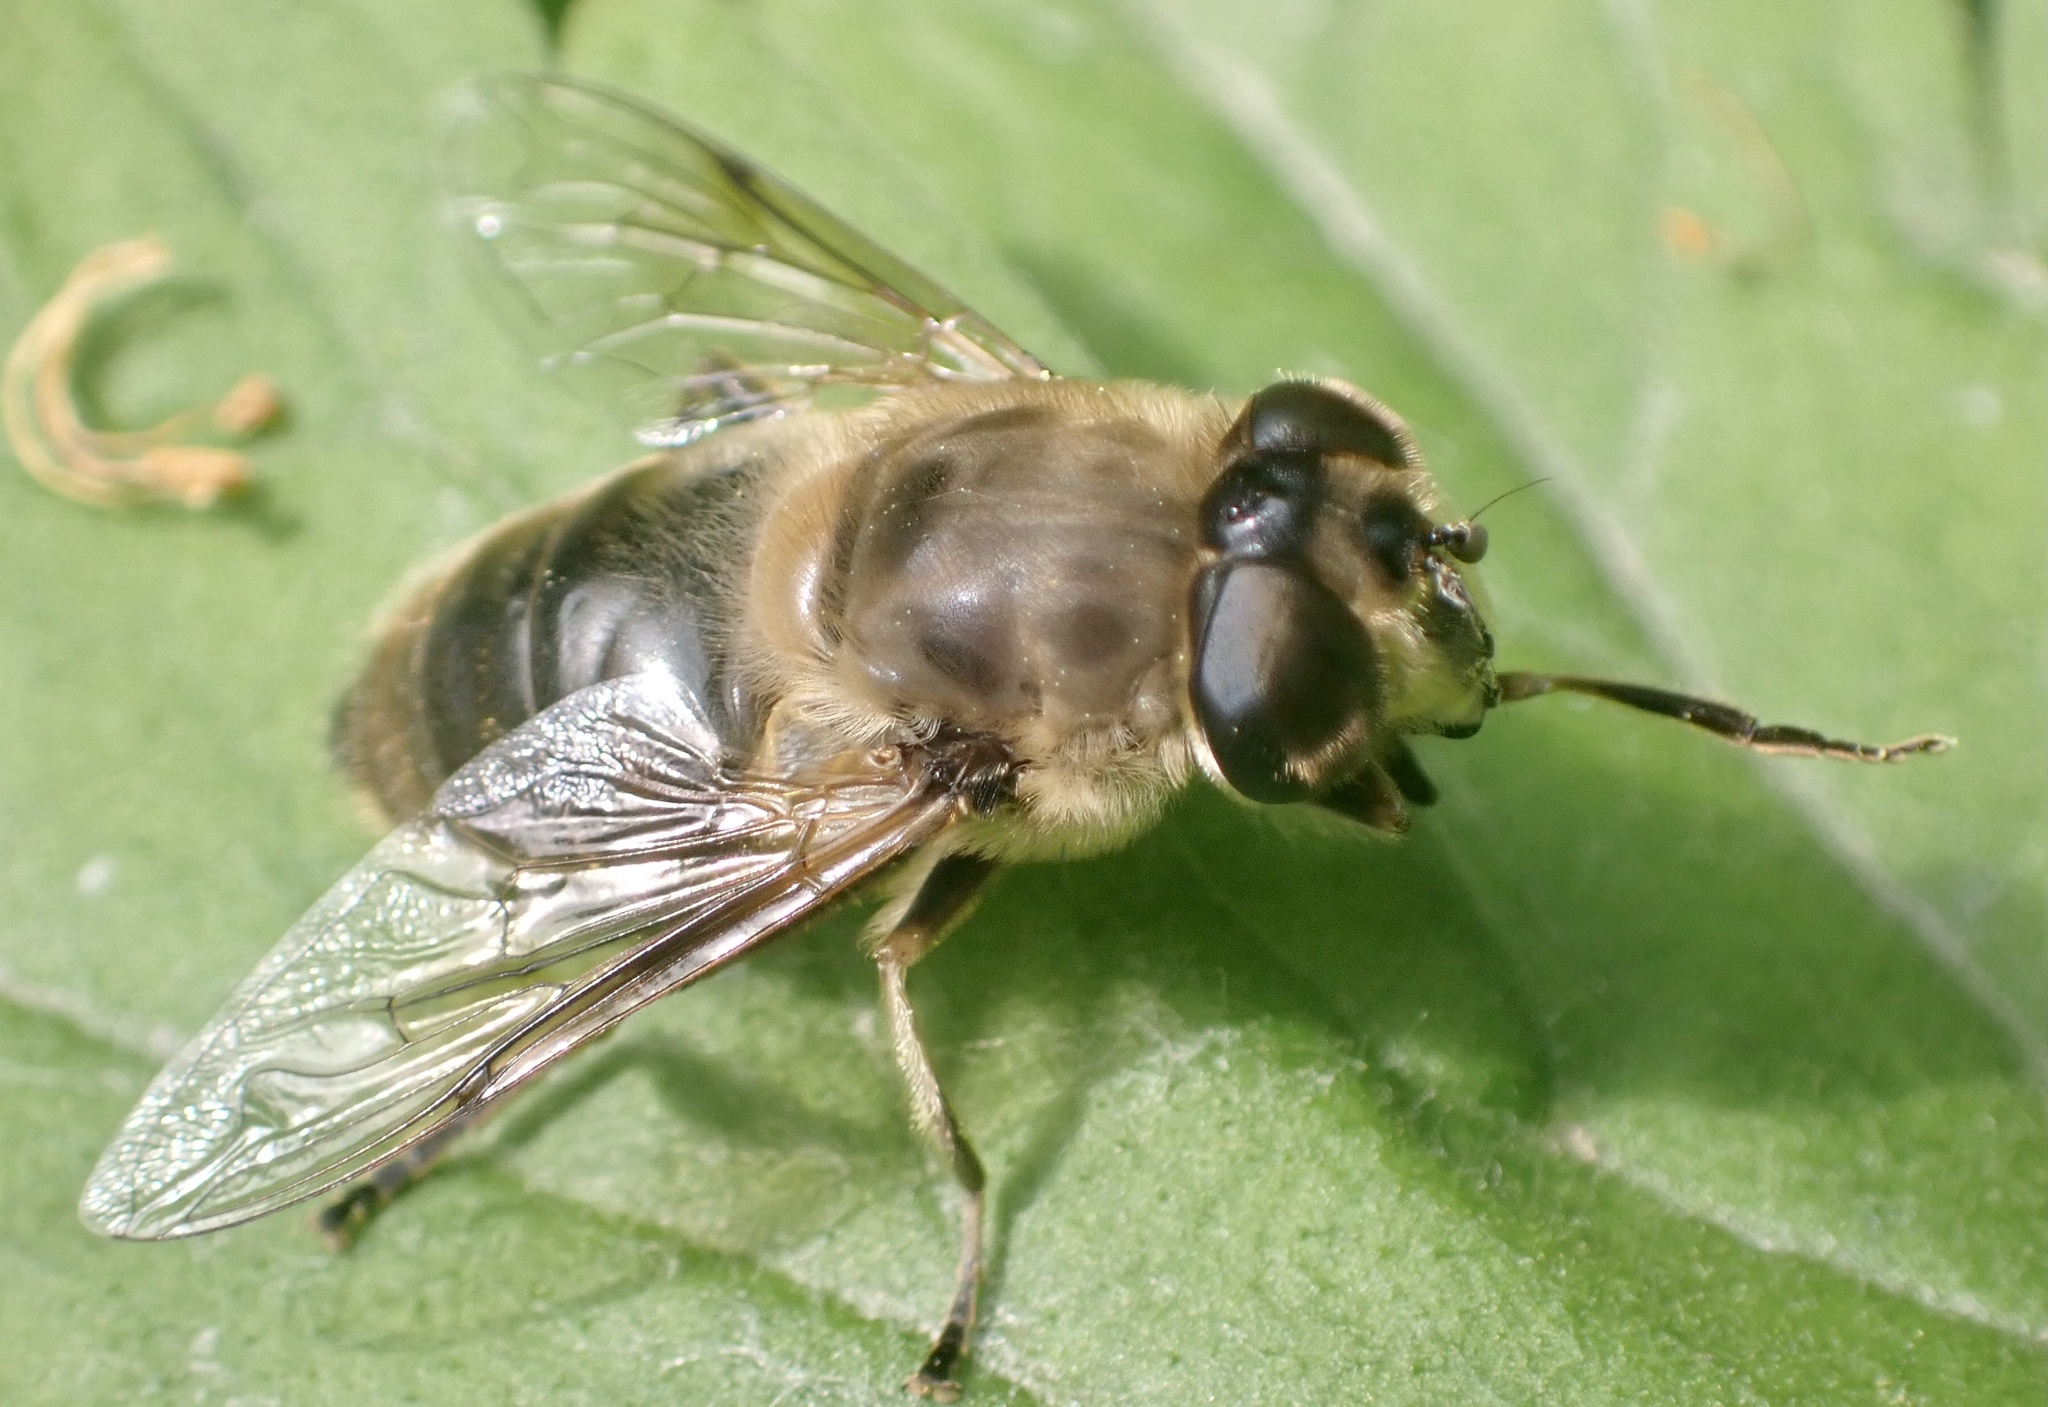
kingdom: Animalia
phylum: Arthropoda
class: Insecta
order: Diptera
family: Syrphidae
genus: Eristalis
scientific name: Eristalis tenax
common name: Drone fly
